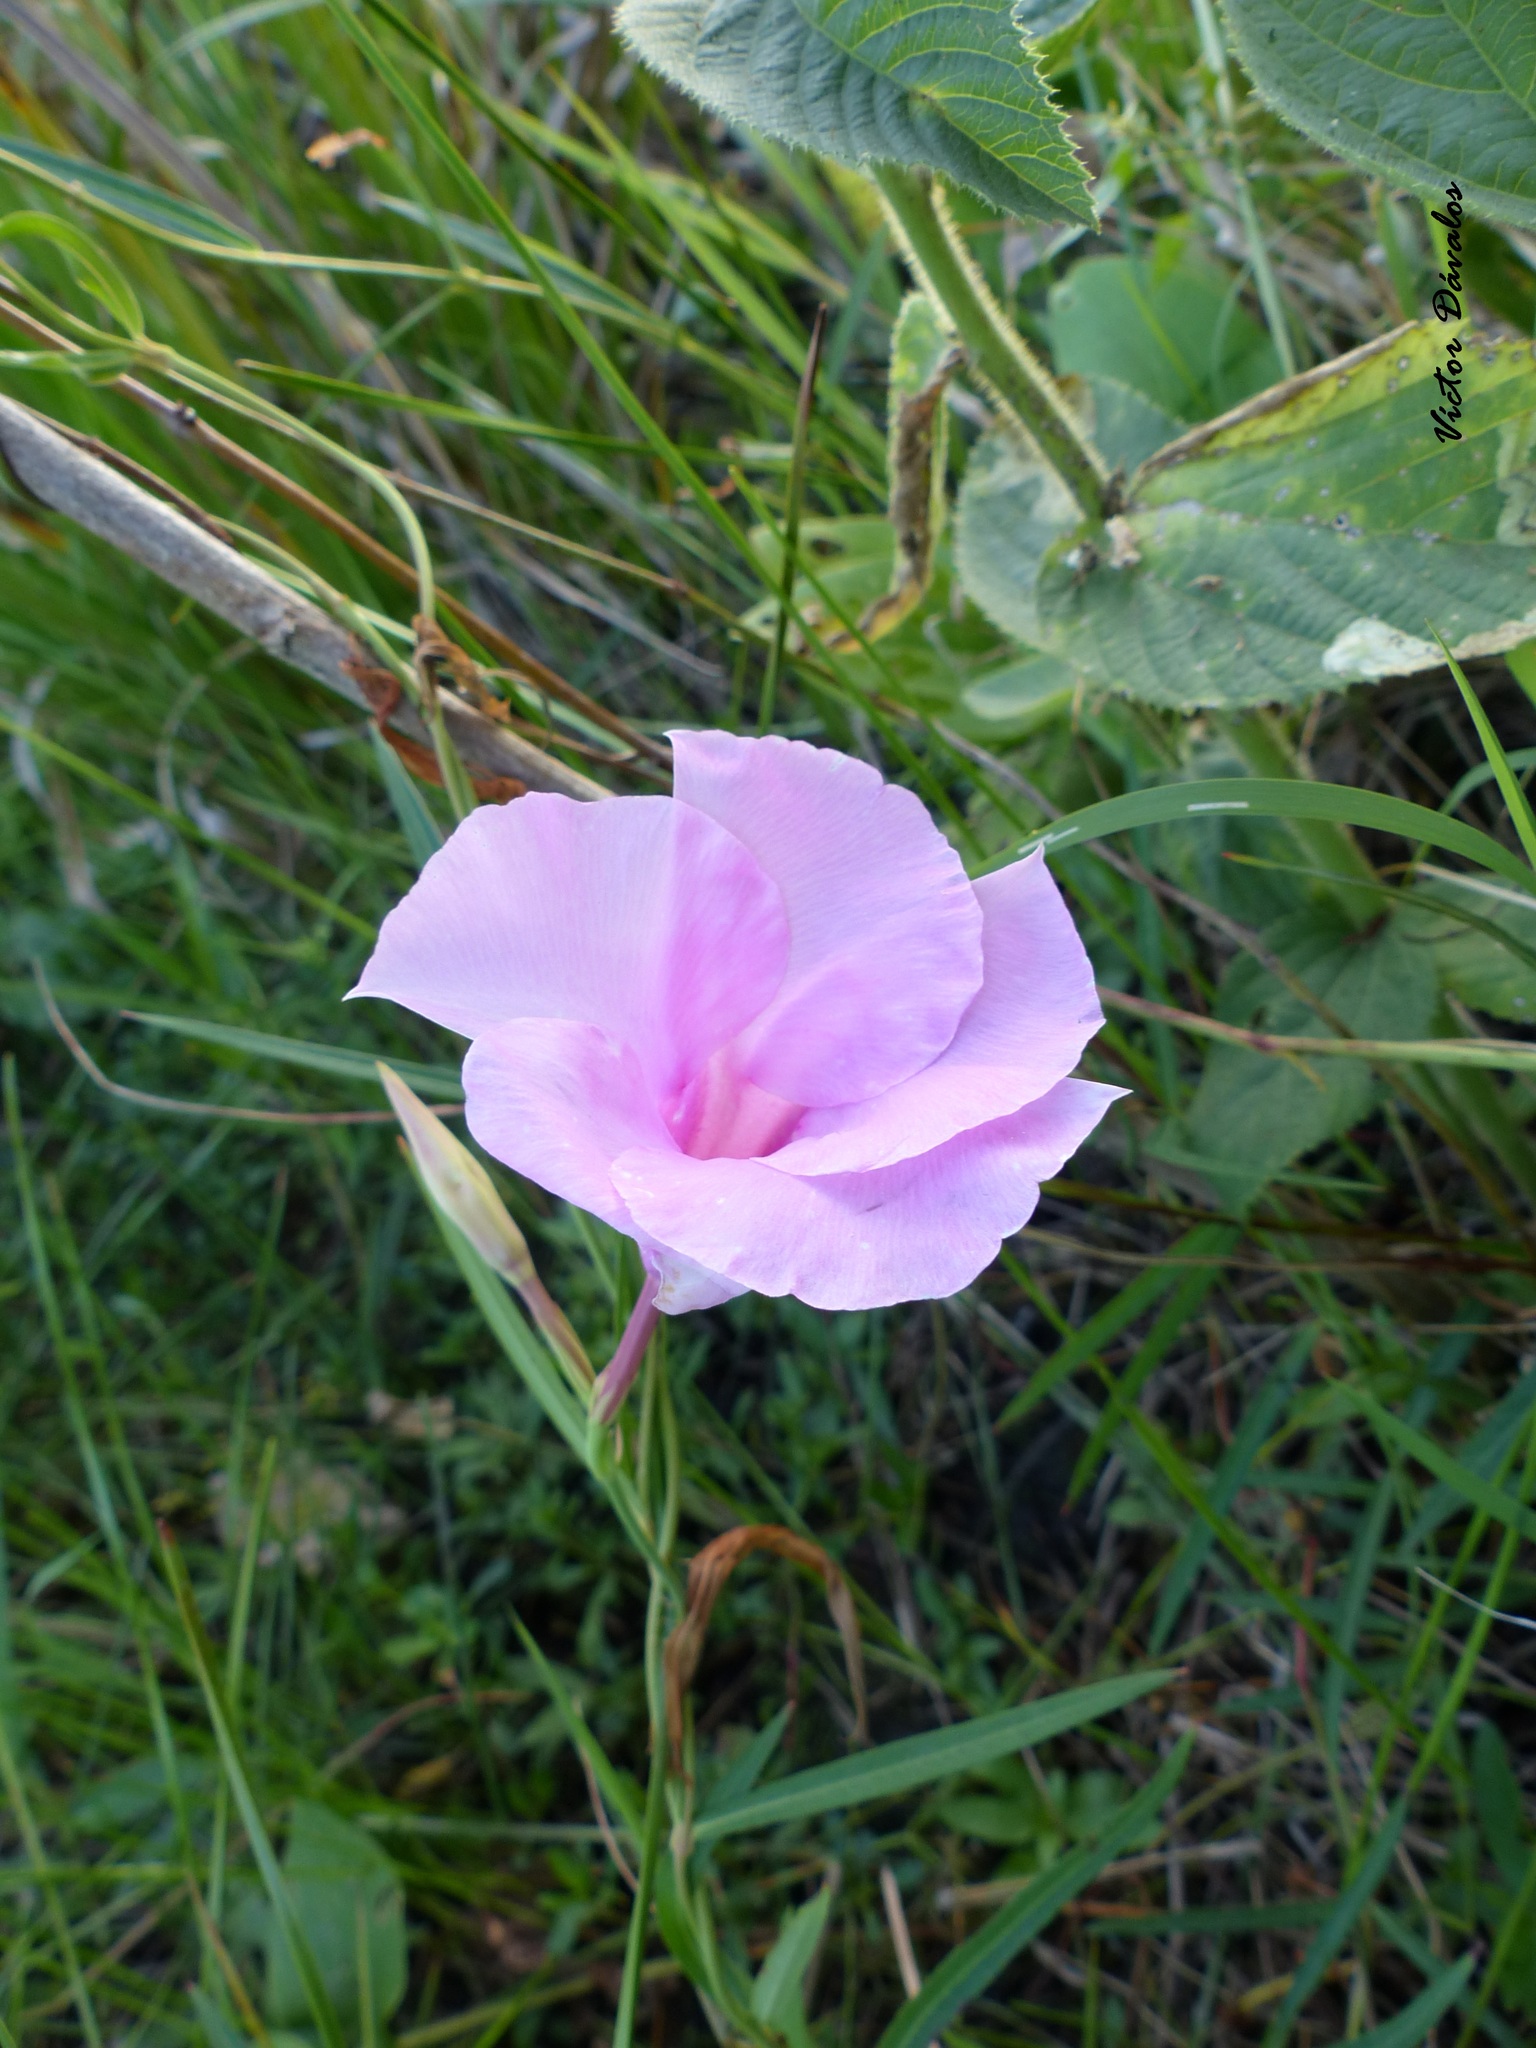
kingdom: Plantae
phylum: Tracheophyta
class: Magnoliopsida
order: Gentianales
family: Apocynaceae
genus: Rhabdadenia
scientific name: Rhabdadenia ragonesei
